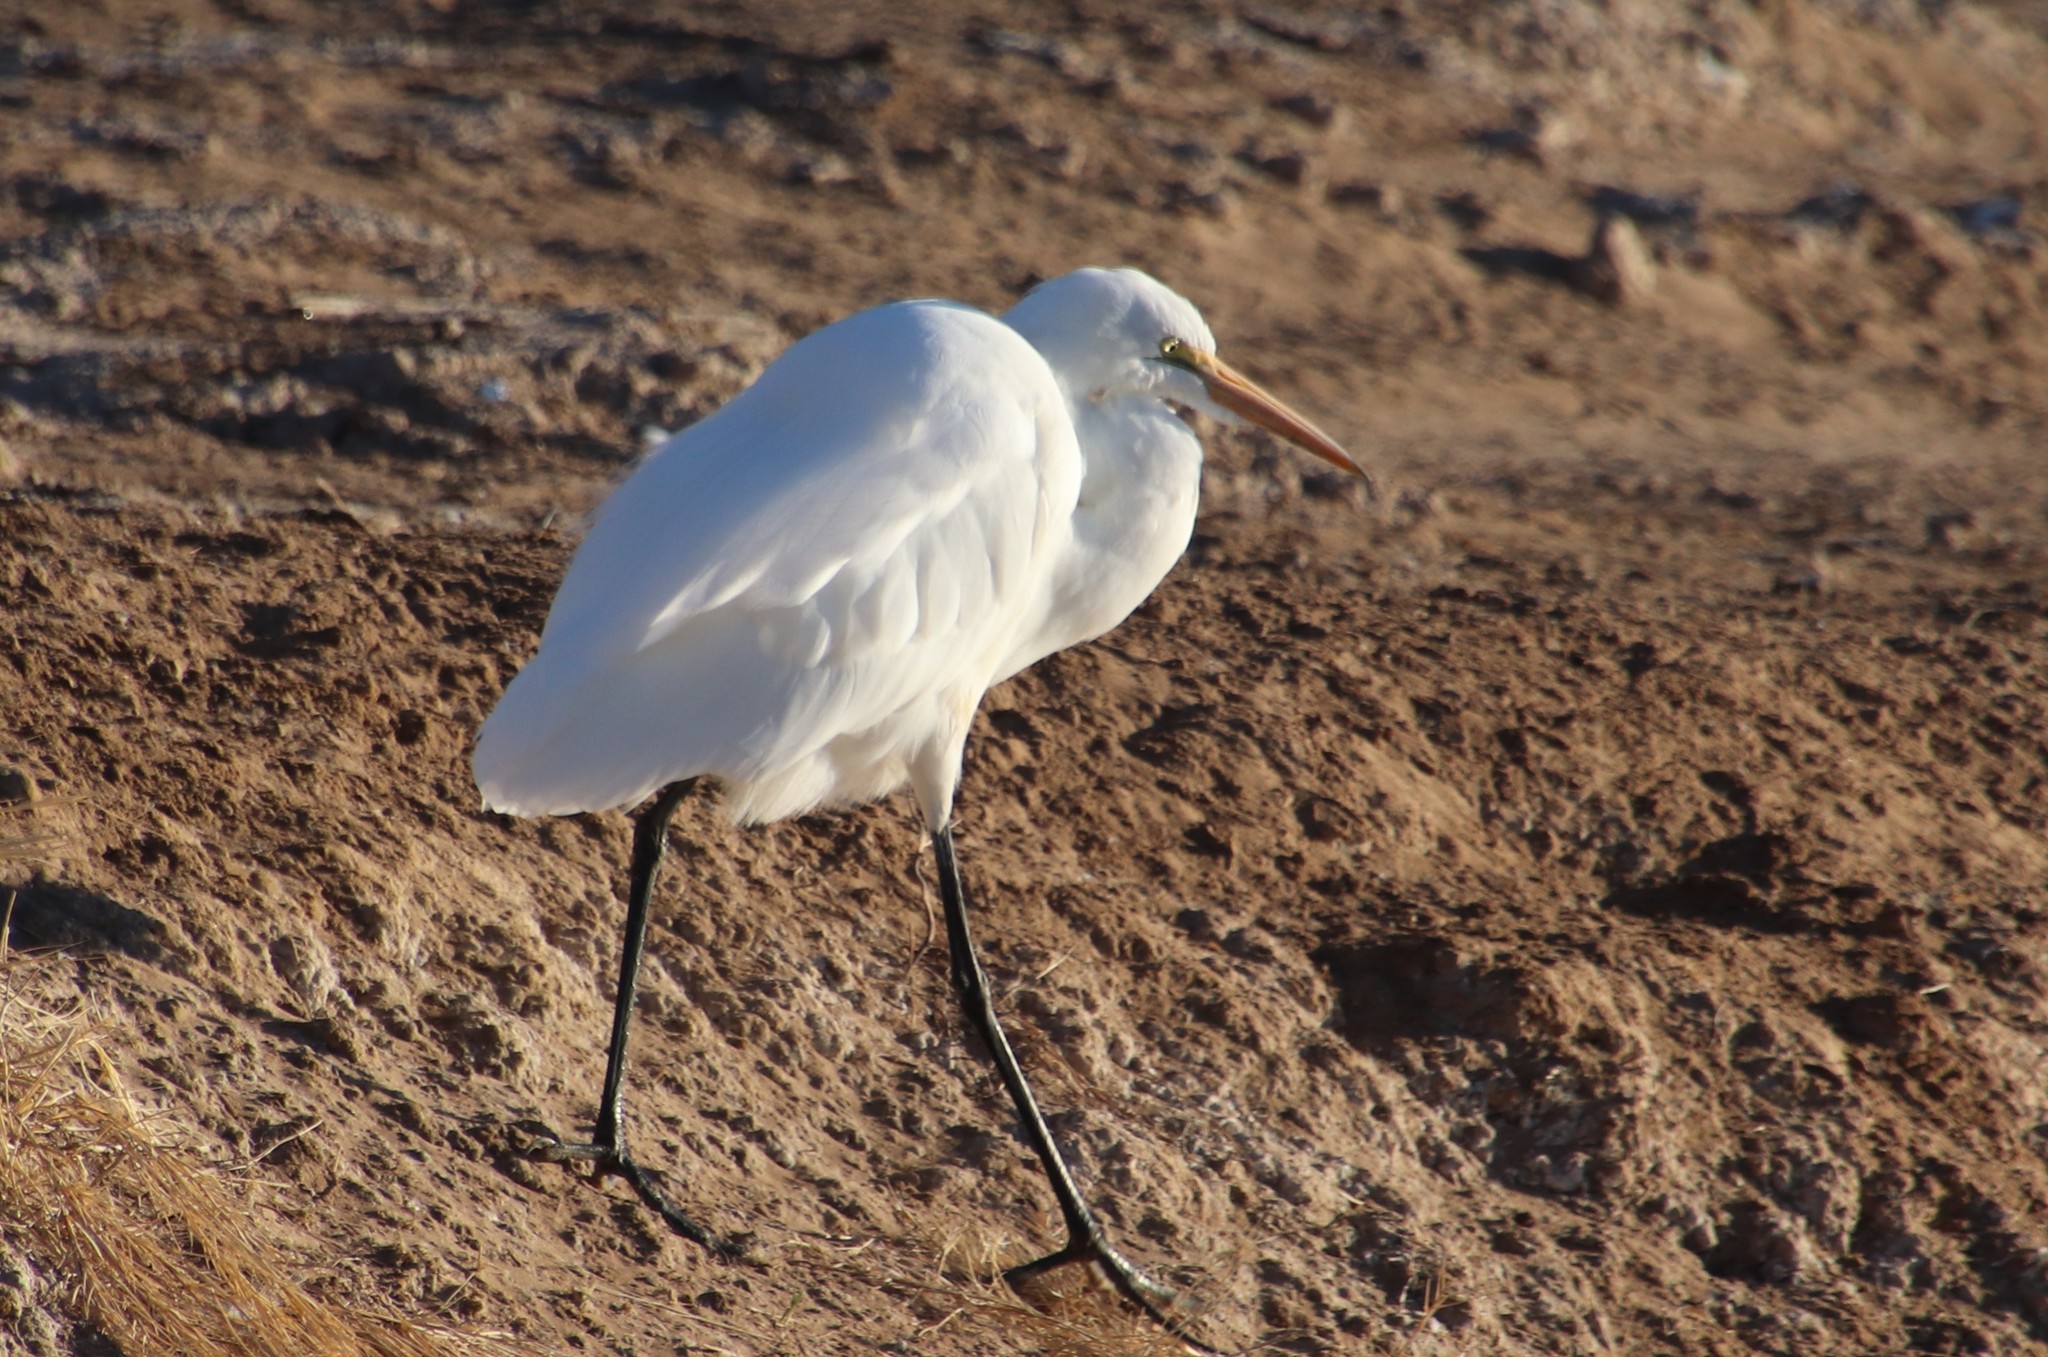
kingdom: Animalia
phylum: Chordata
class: Aves
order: Pelecaniformes
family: Ardeidae
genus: Ardea
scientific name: Ardea alba
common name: Great egret
